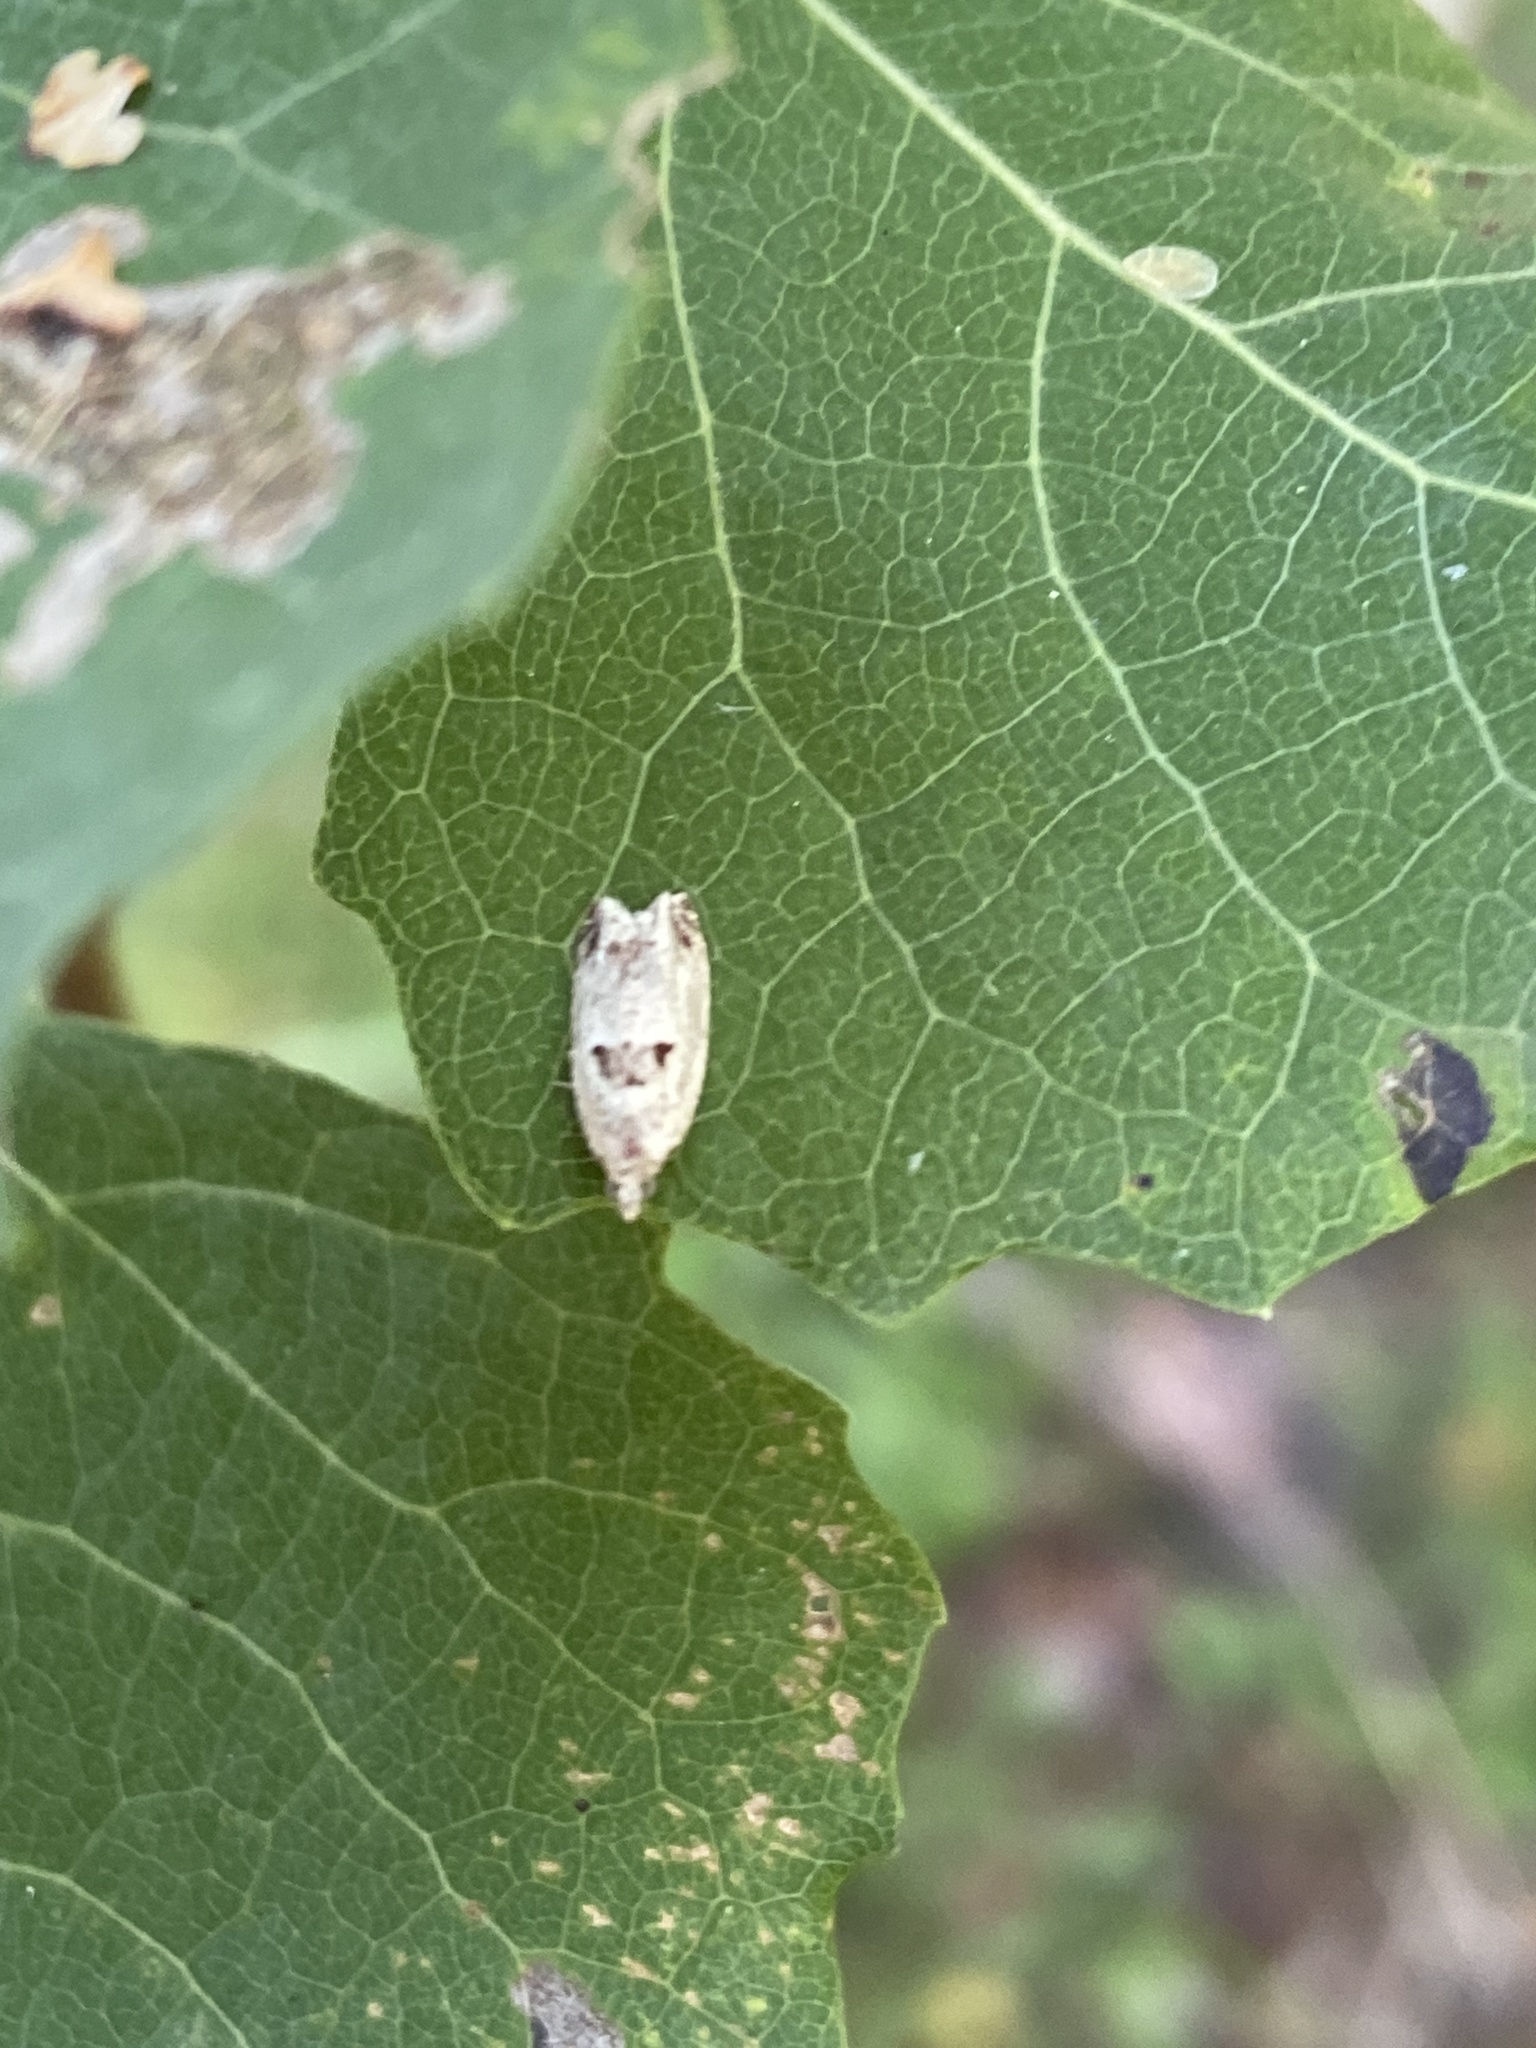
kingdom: Animalia
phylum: Arthropoda
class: Insecta
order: Lepidoptera
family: Tortricidae
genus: Epinotia
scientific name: Epinotia ramella
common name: Small birch bell
